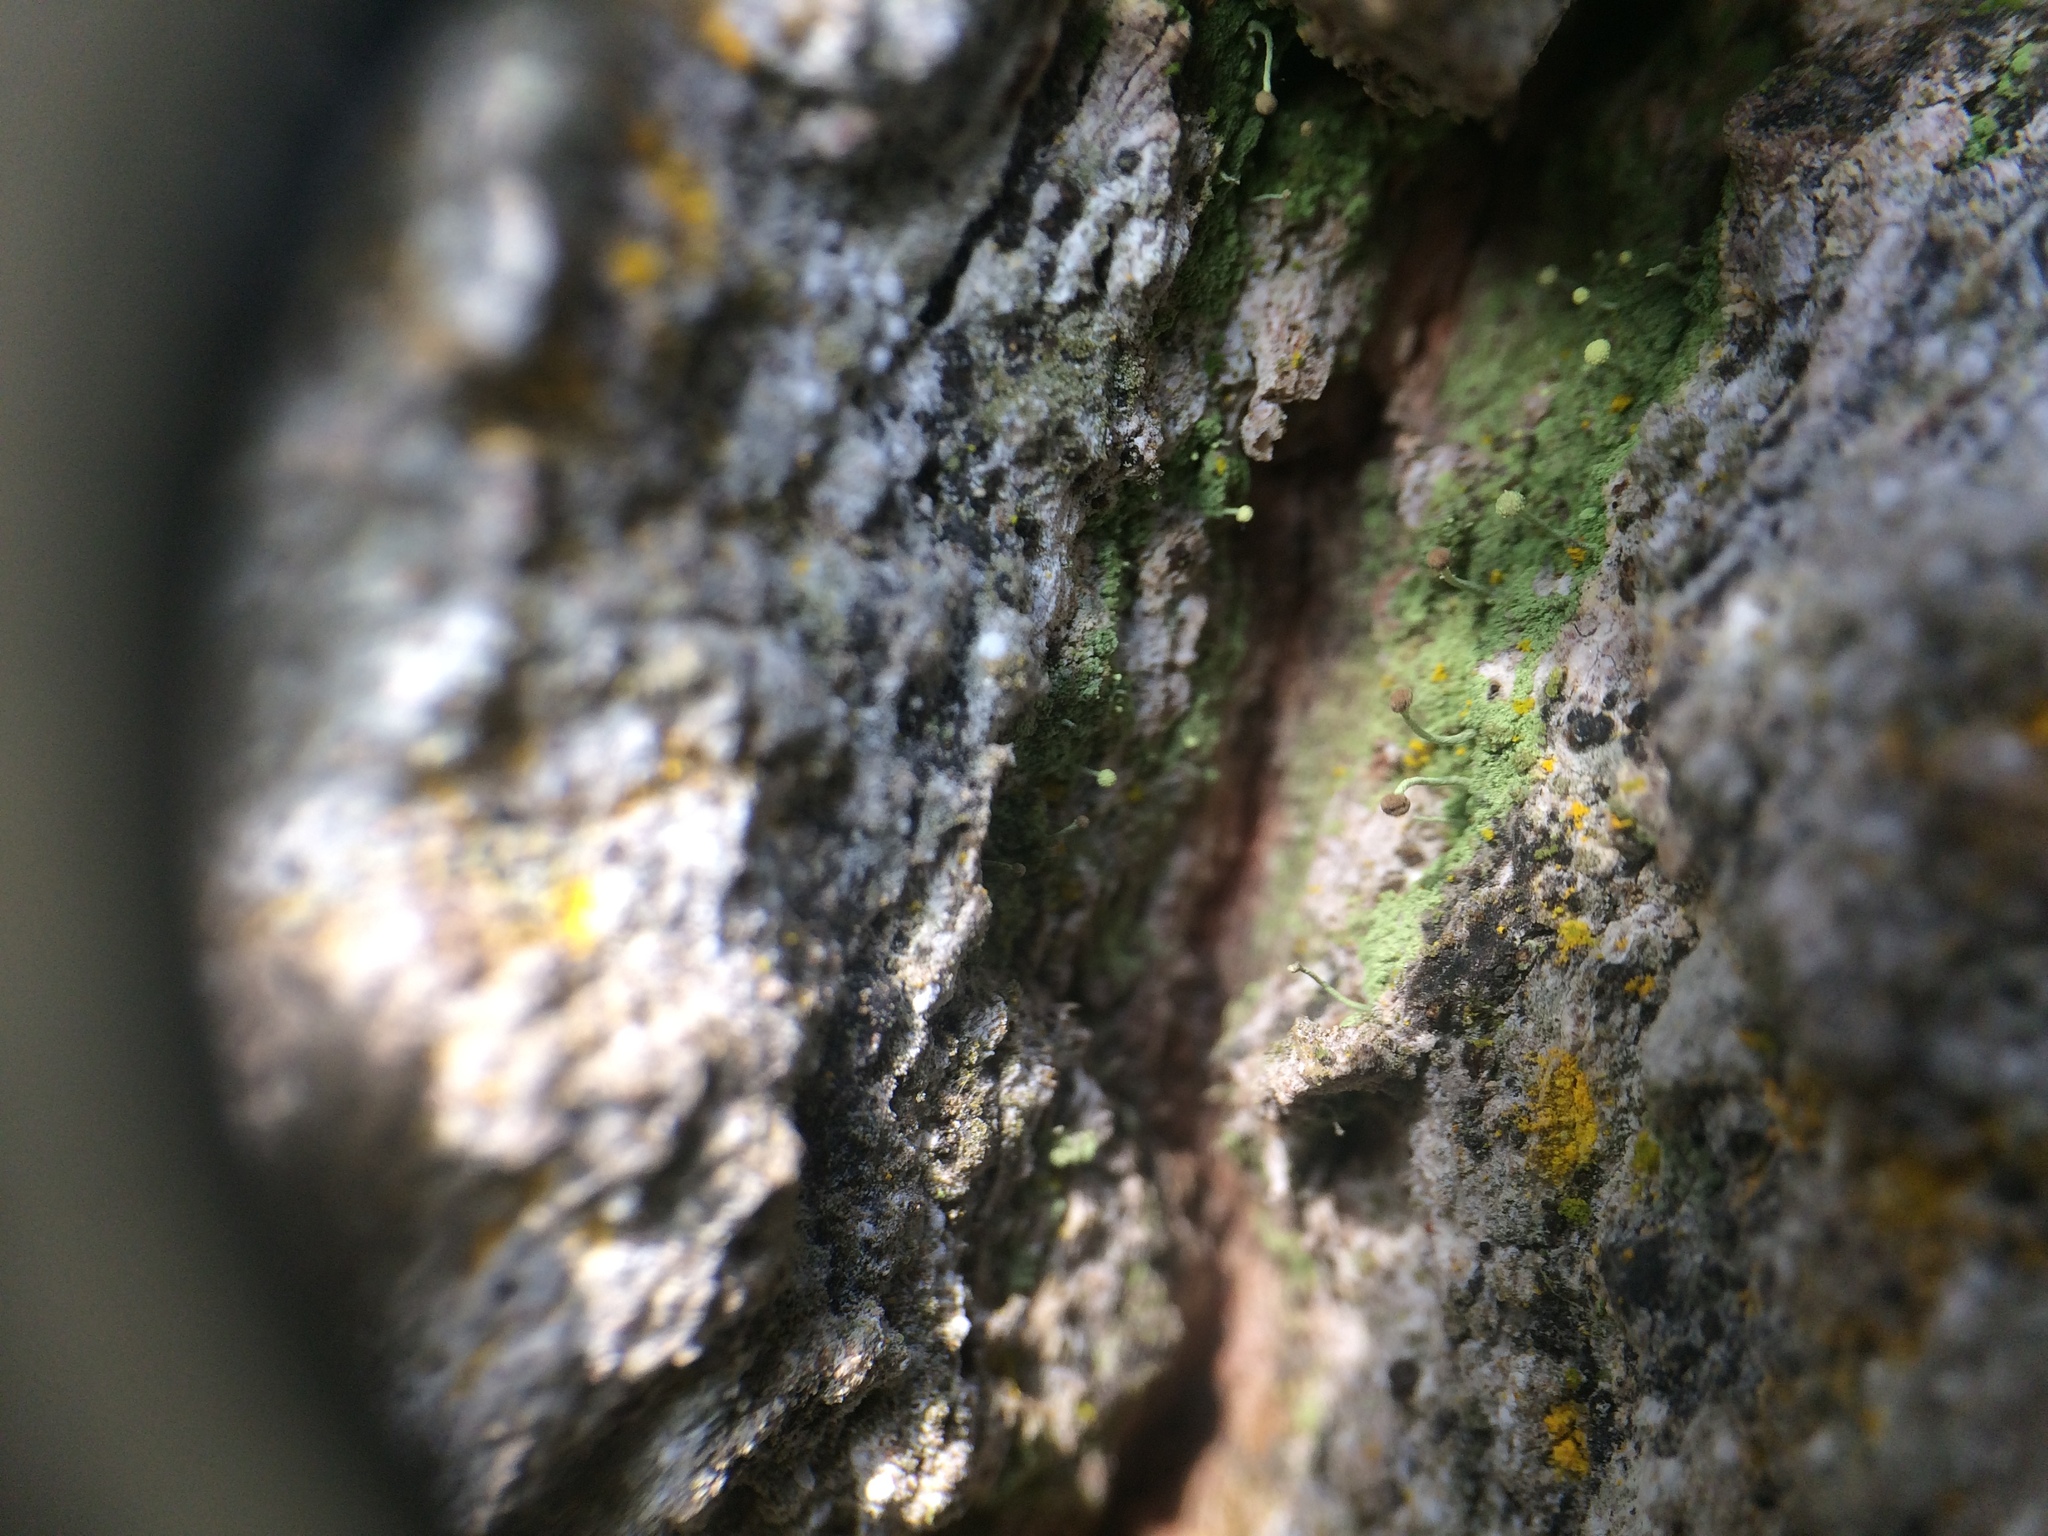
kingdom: Fungi
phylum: Ascomycota
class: Coniocybomycetes
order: Coniocybales
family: Coniocybaceae
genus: Chaenotheca
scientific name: Chaenotheca furfuracea
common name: Sulphur stubble lichen
